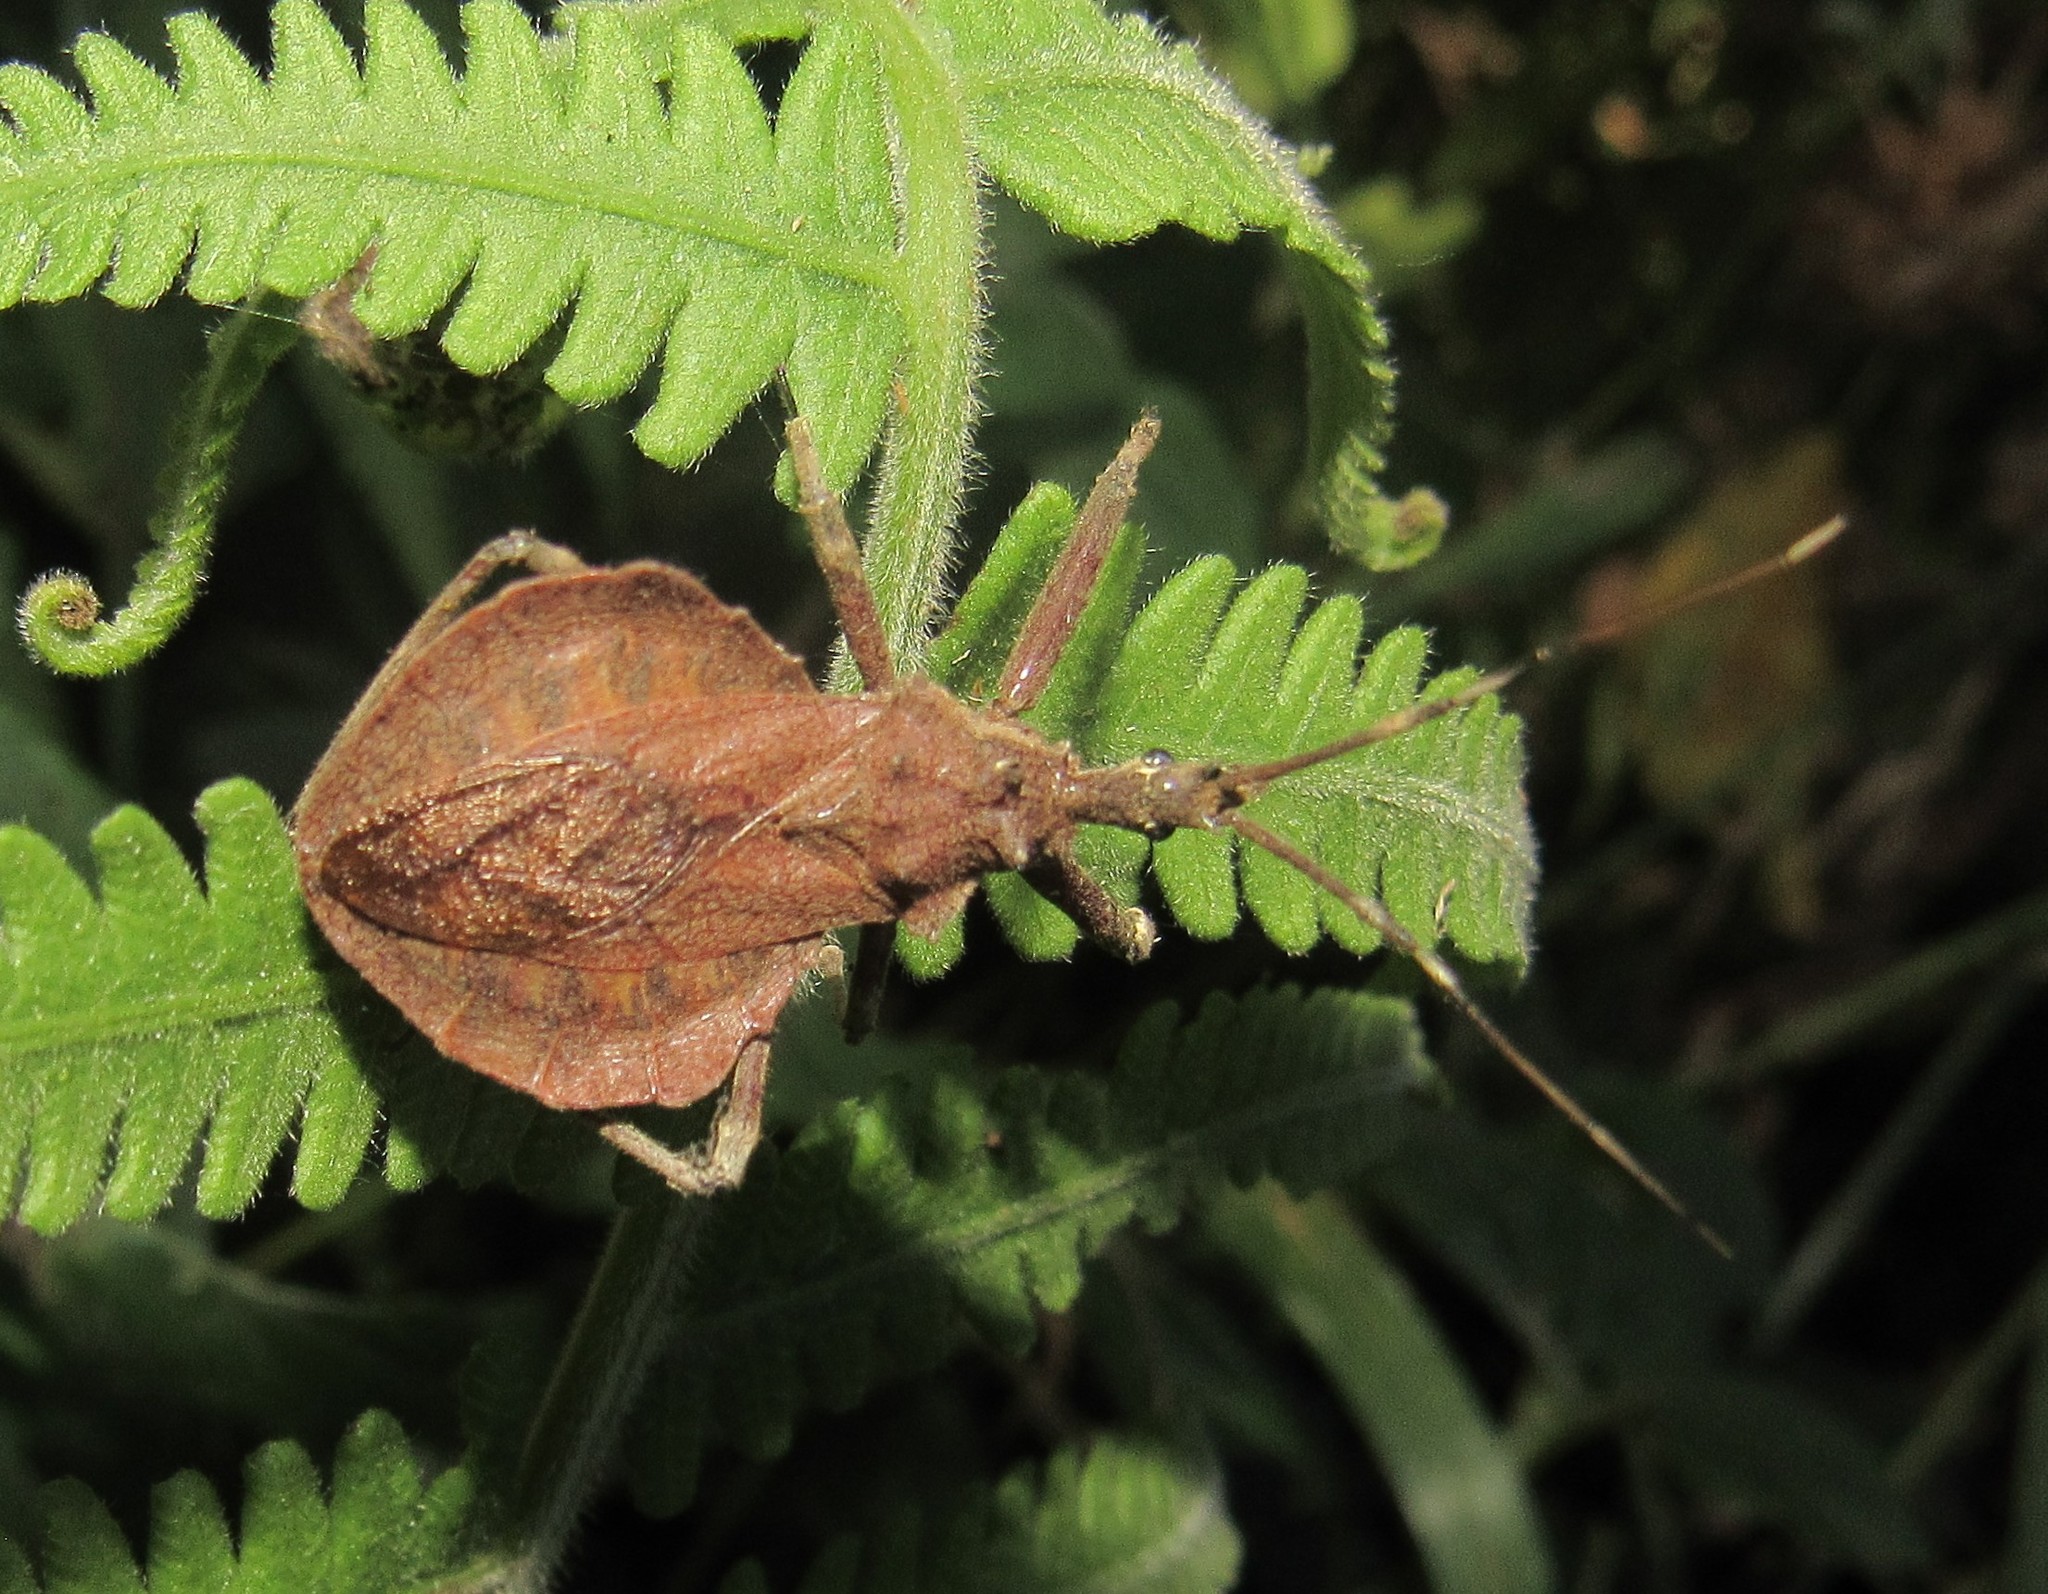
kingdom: Animalia
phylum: Arthropoda
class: Insecta
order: Hemiptera
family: Reduviidae
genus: Harpactor
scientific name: Harpactor angulosus
